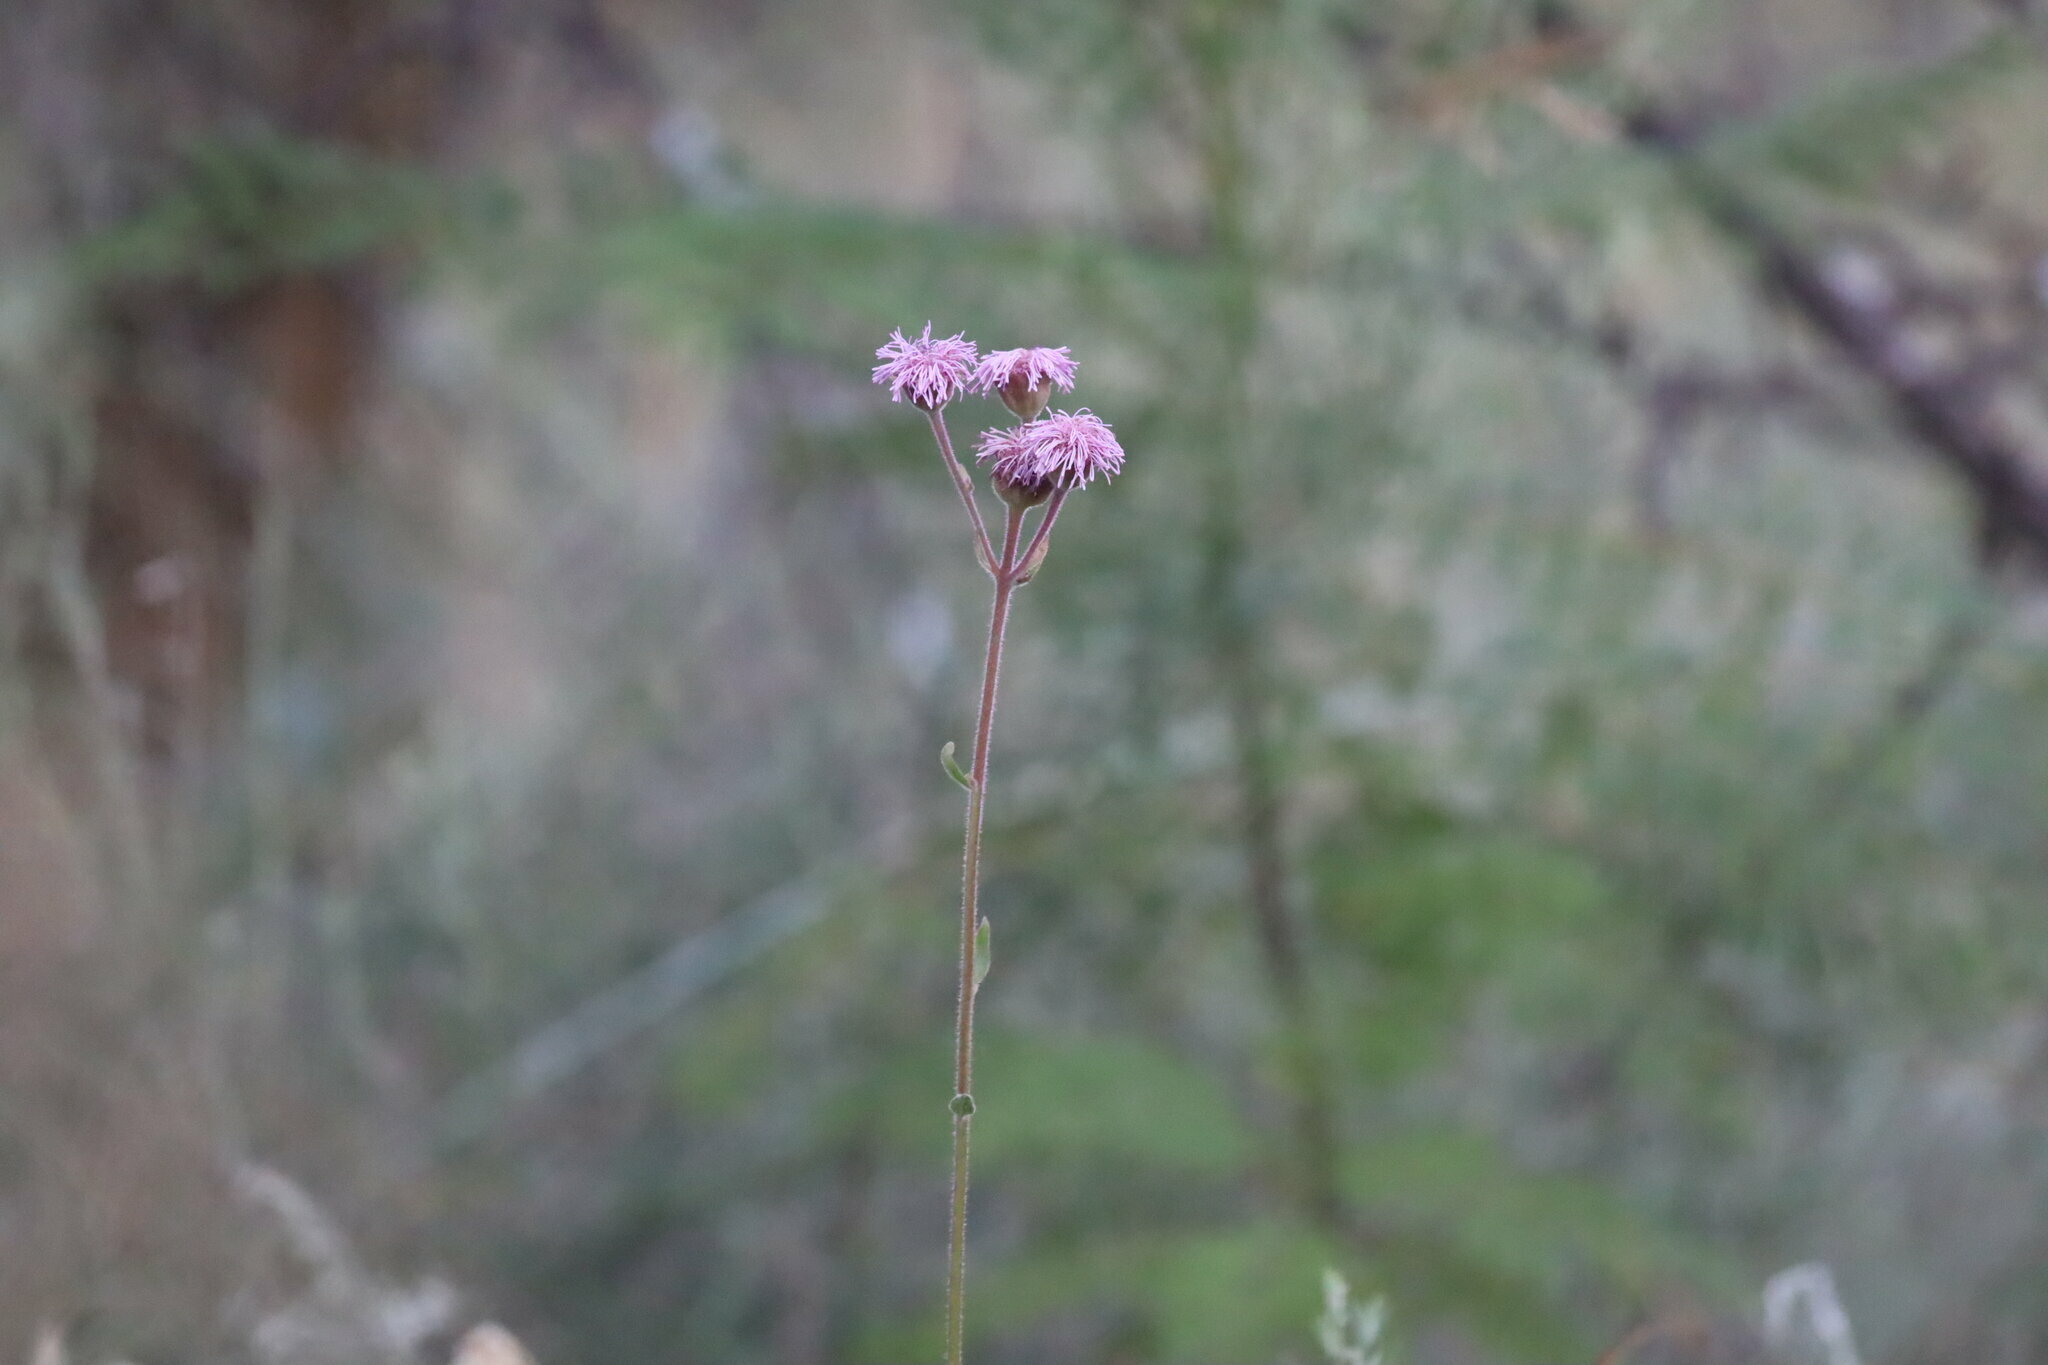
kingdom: Plantae
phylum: Tracheophyta
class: Magnoliopsida
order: Asterales
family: Asteraceae
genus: Campuloclinium
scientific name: Campuloclinium macrocephalum
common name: Pompomweed
